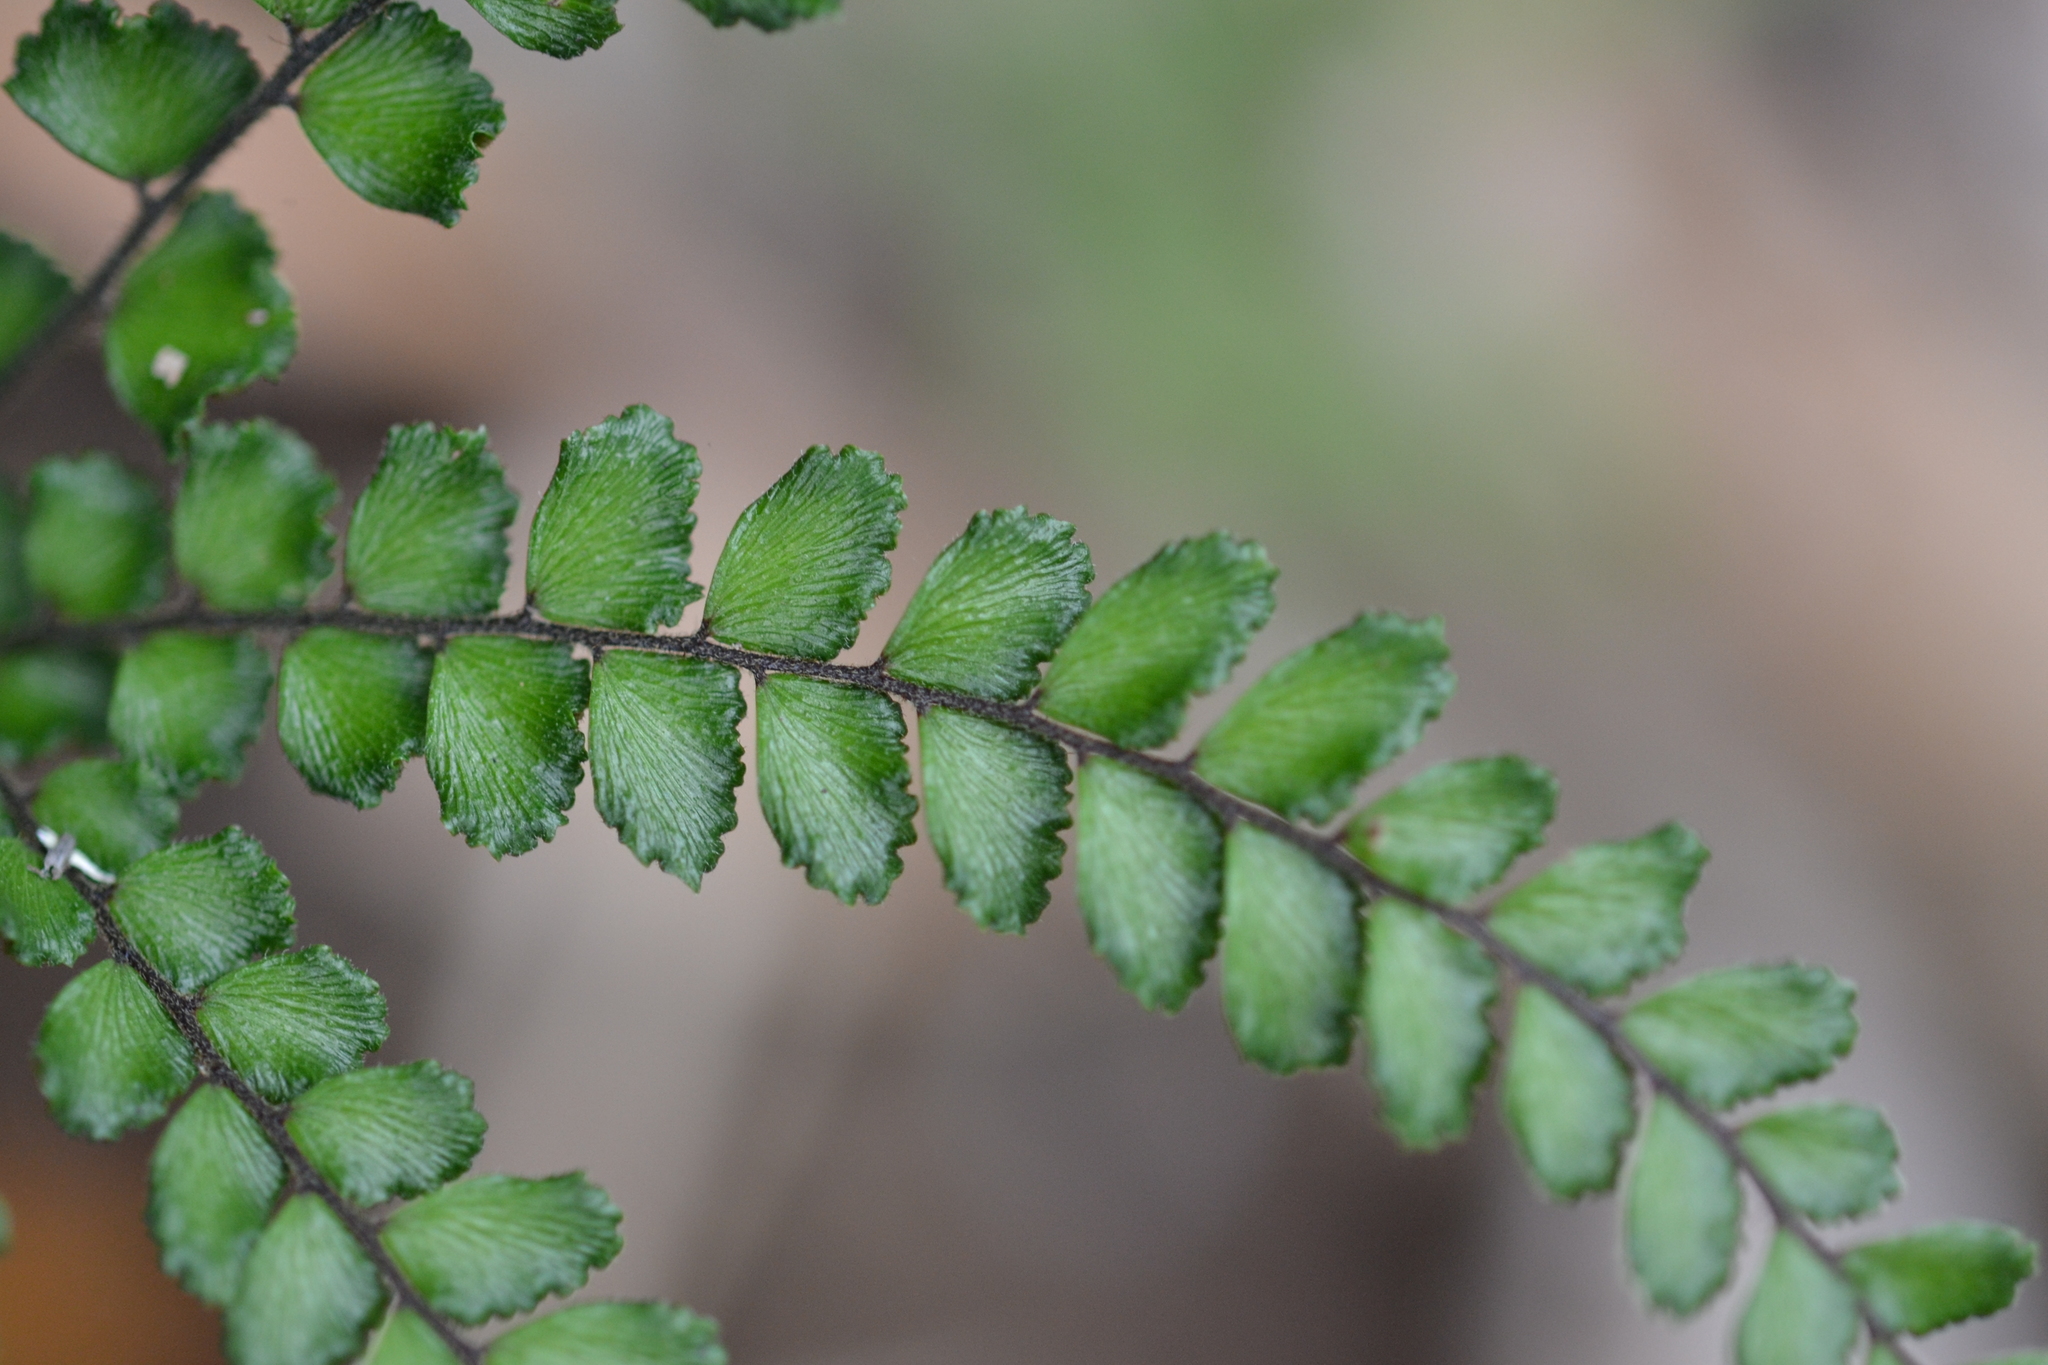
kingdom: Plantae
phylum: Tracheophyta
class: Polypodiopsida
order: Polypodiales
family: Pteridaceae
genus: Adiantum
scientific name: Adiantum hispidulum
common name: Rough maidenhair
